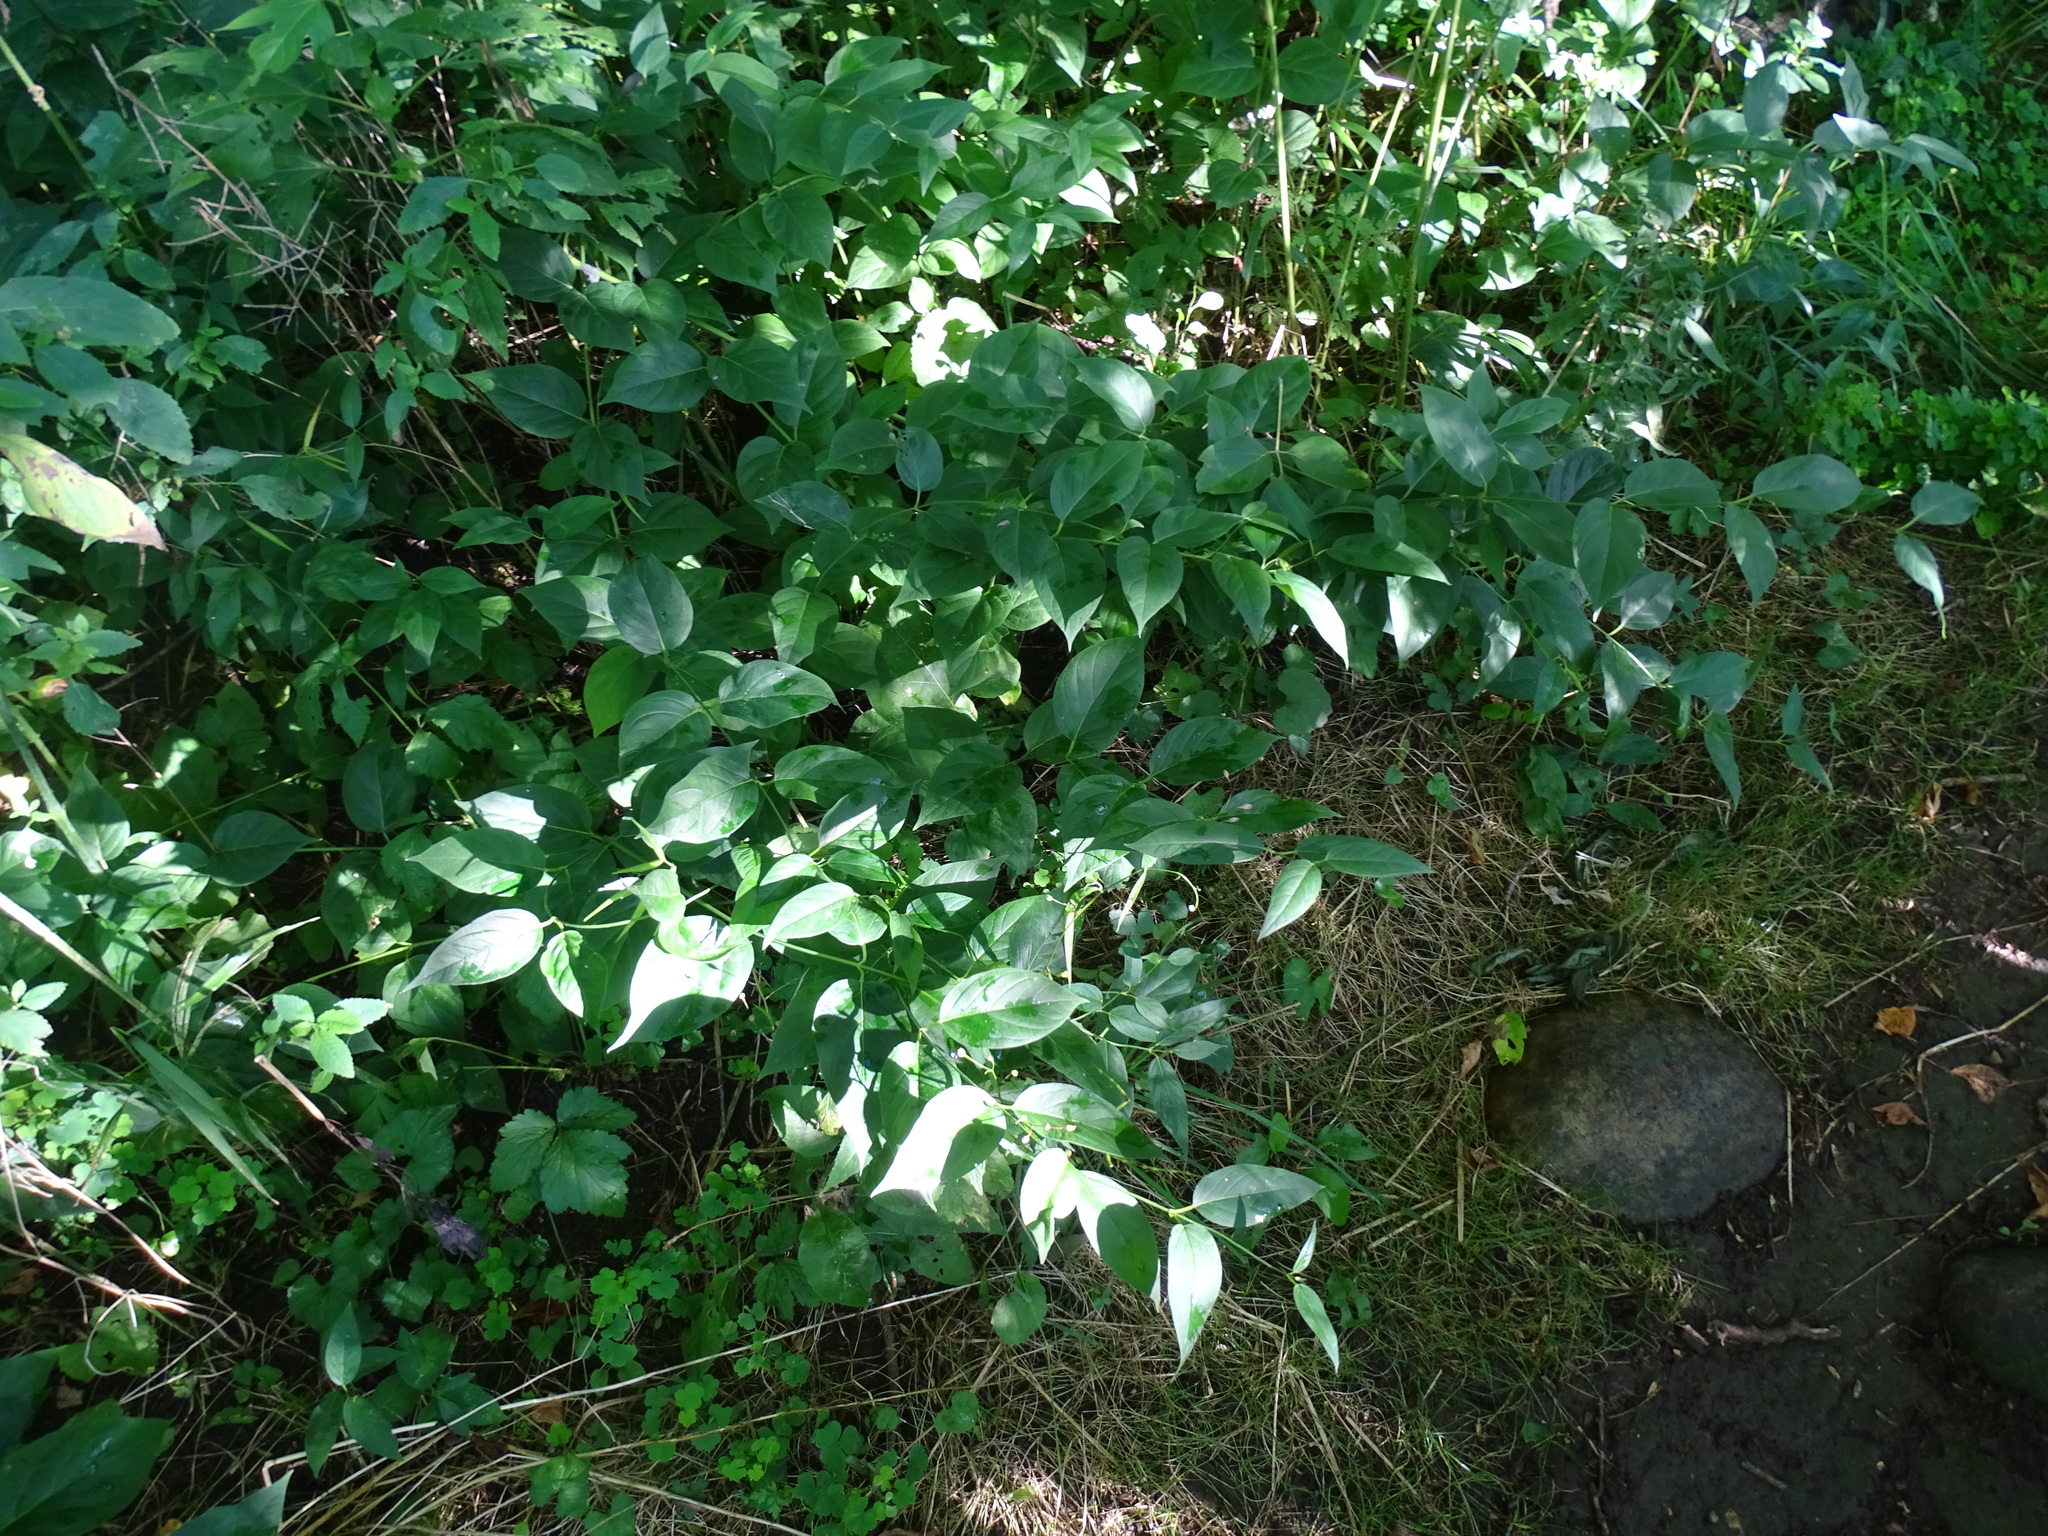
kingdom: Plantae
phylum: Tracheophyta
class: Magnoliopsida
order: Gentianales
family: Apocynaceae
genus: Vincetoxicum
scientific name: Vincetoxicum rossicum
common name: Dog-strangling vine
